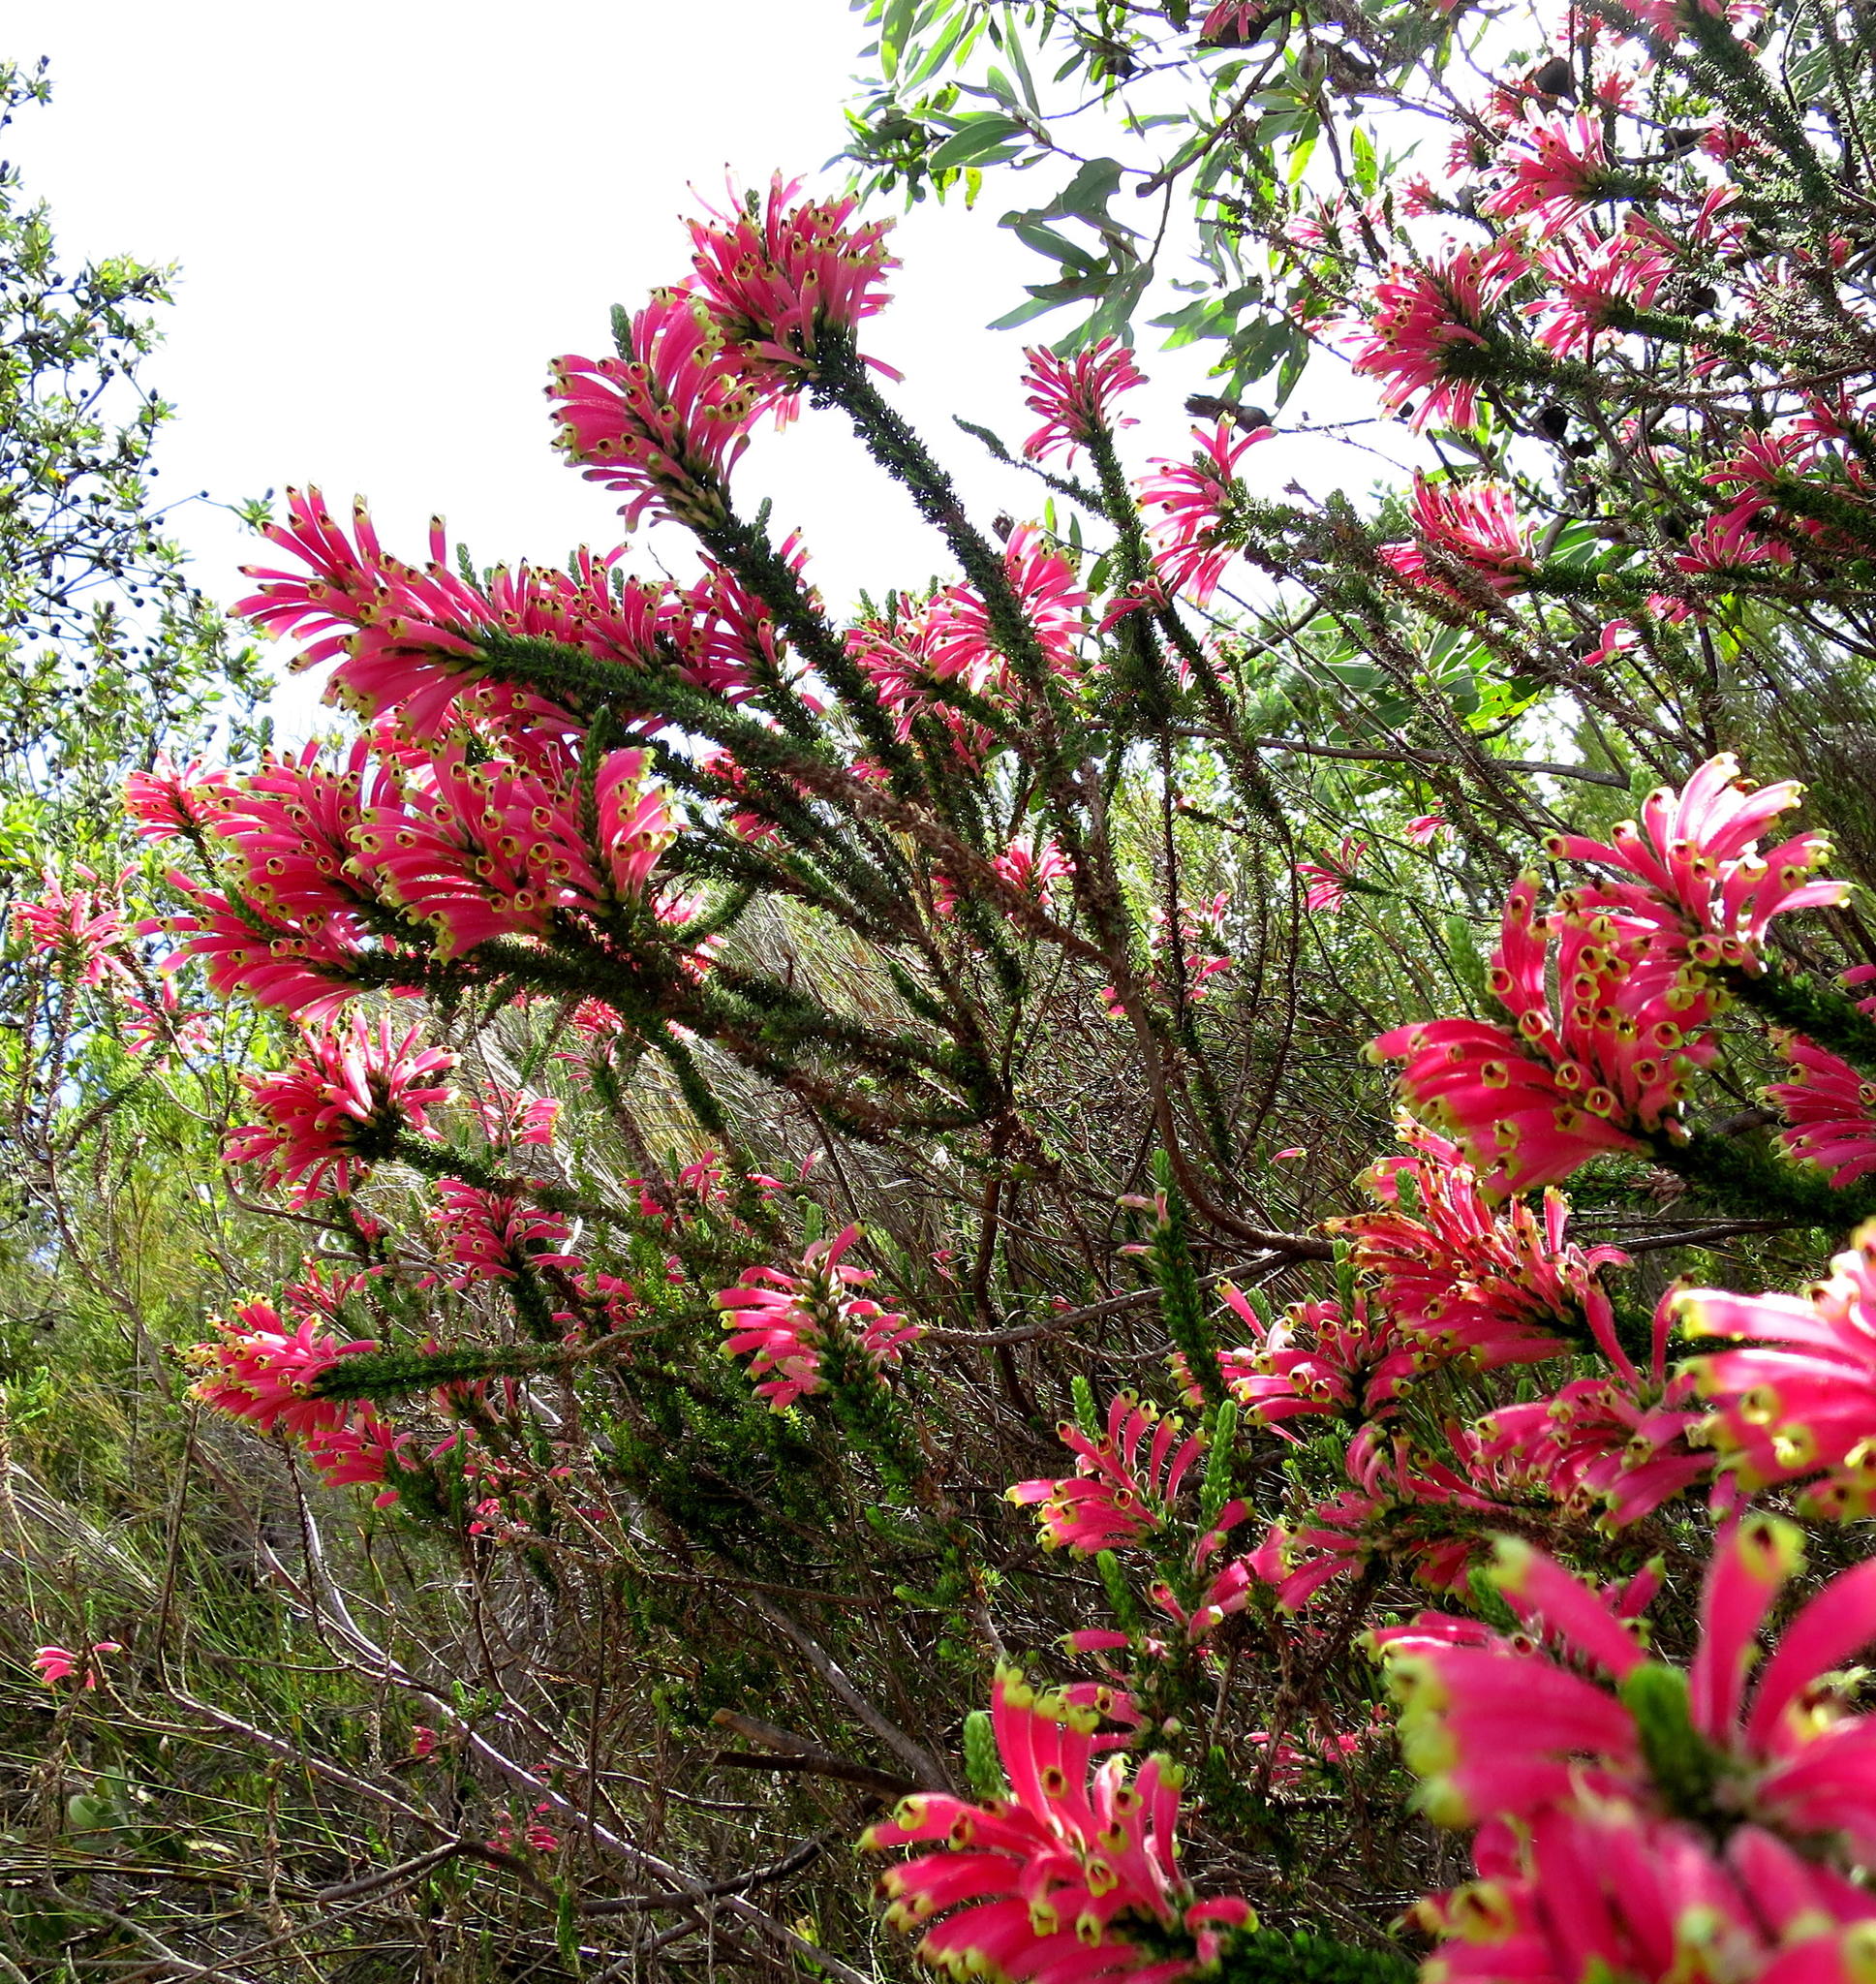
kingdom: Plantae
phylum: Tracheophyta
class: Magnoliopsida
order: Ericales
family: Ericaceae
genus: Erica
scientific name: Erica densifolia
